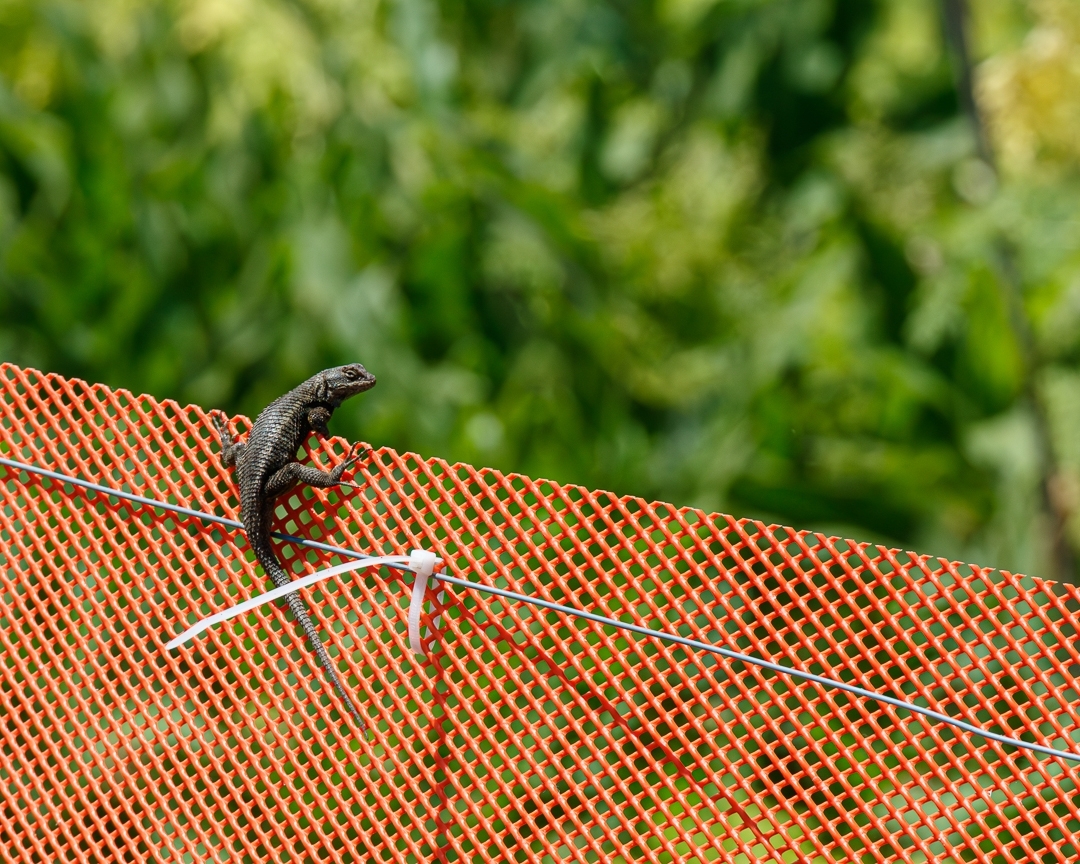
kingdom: Animalia
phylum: Chordata
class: Squamata
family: Phrynosomatidae
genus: Sceloporus
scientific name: Sceloporus occidentalis
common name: Western fence lizard
